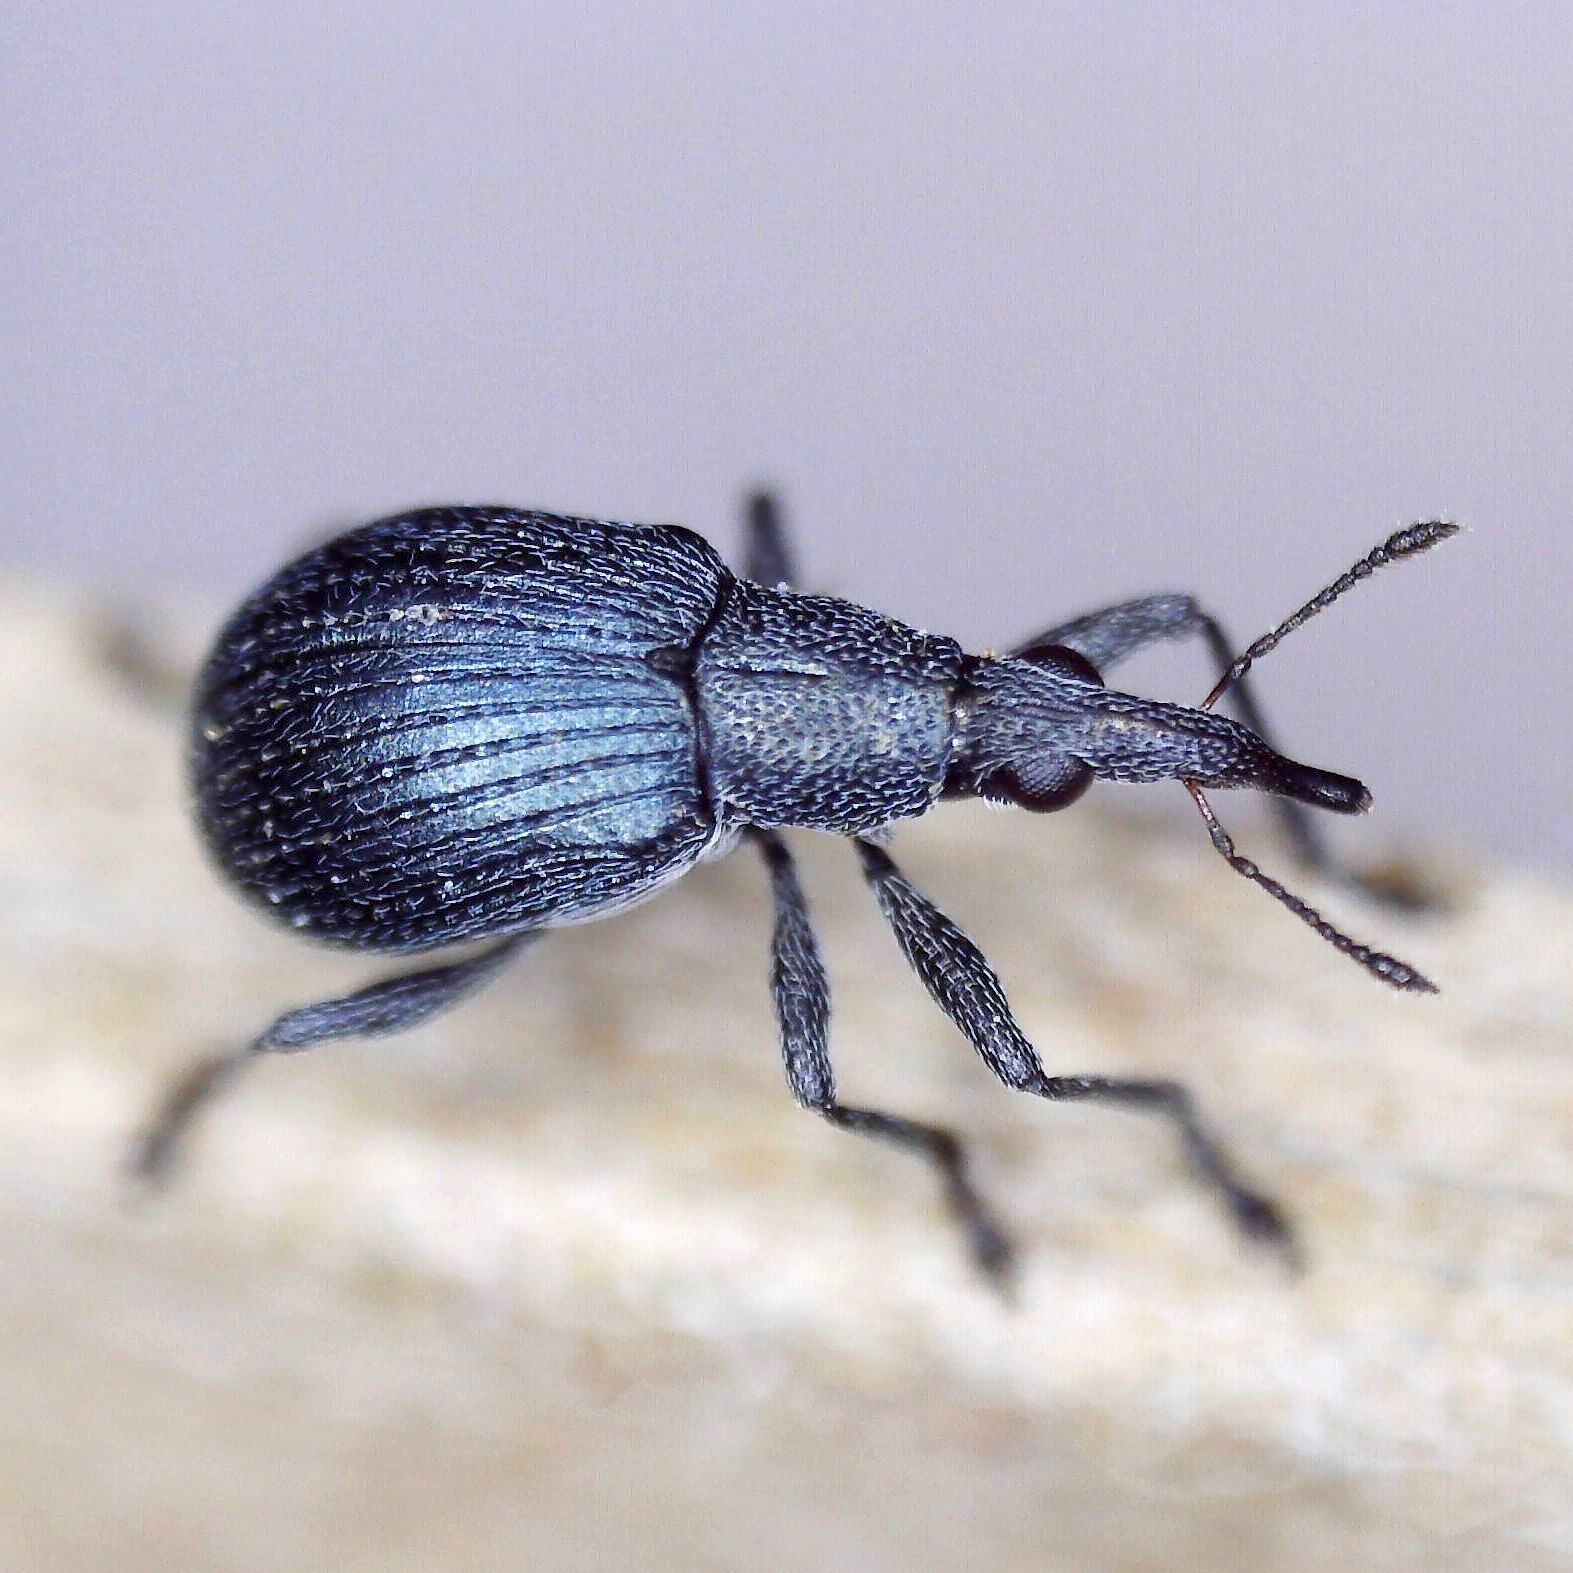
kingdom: Animalia
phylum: Arthropoda
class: Insecta
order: Coleoptera
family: Apionidae
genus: Oxystoma
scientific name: Oxystoma pomonae
